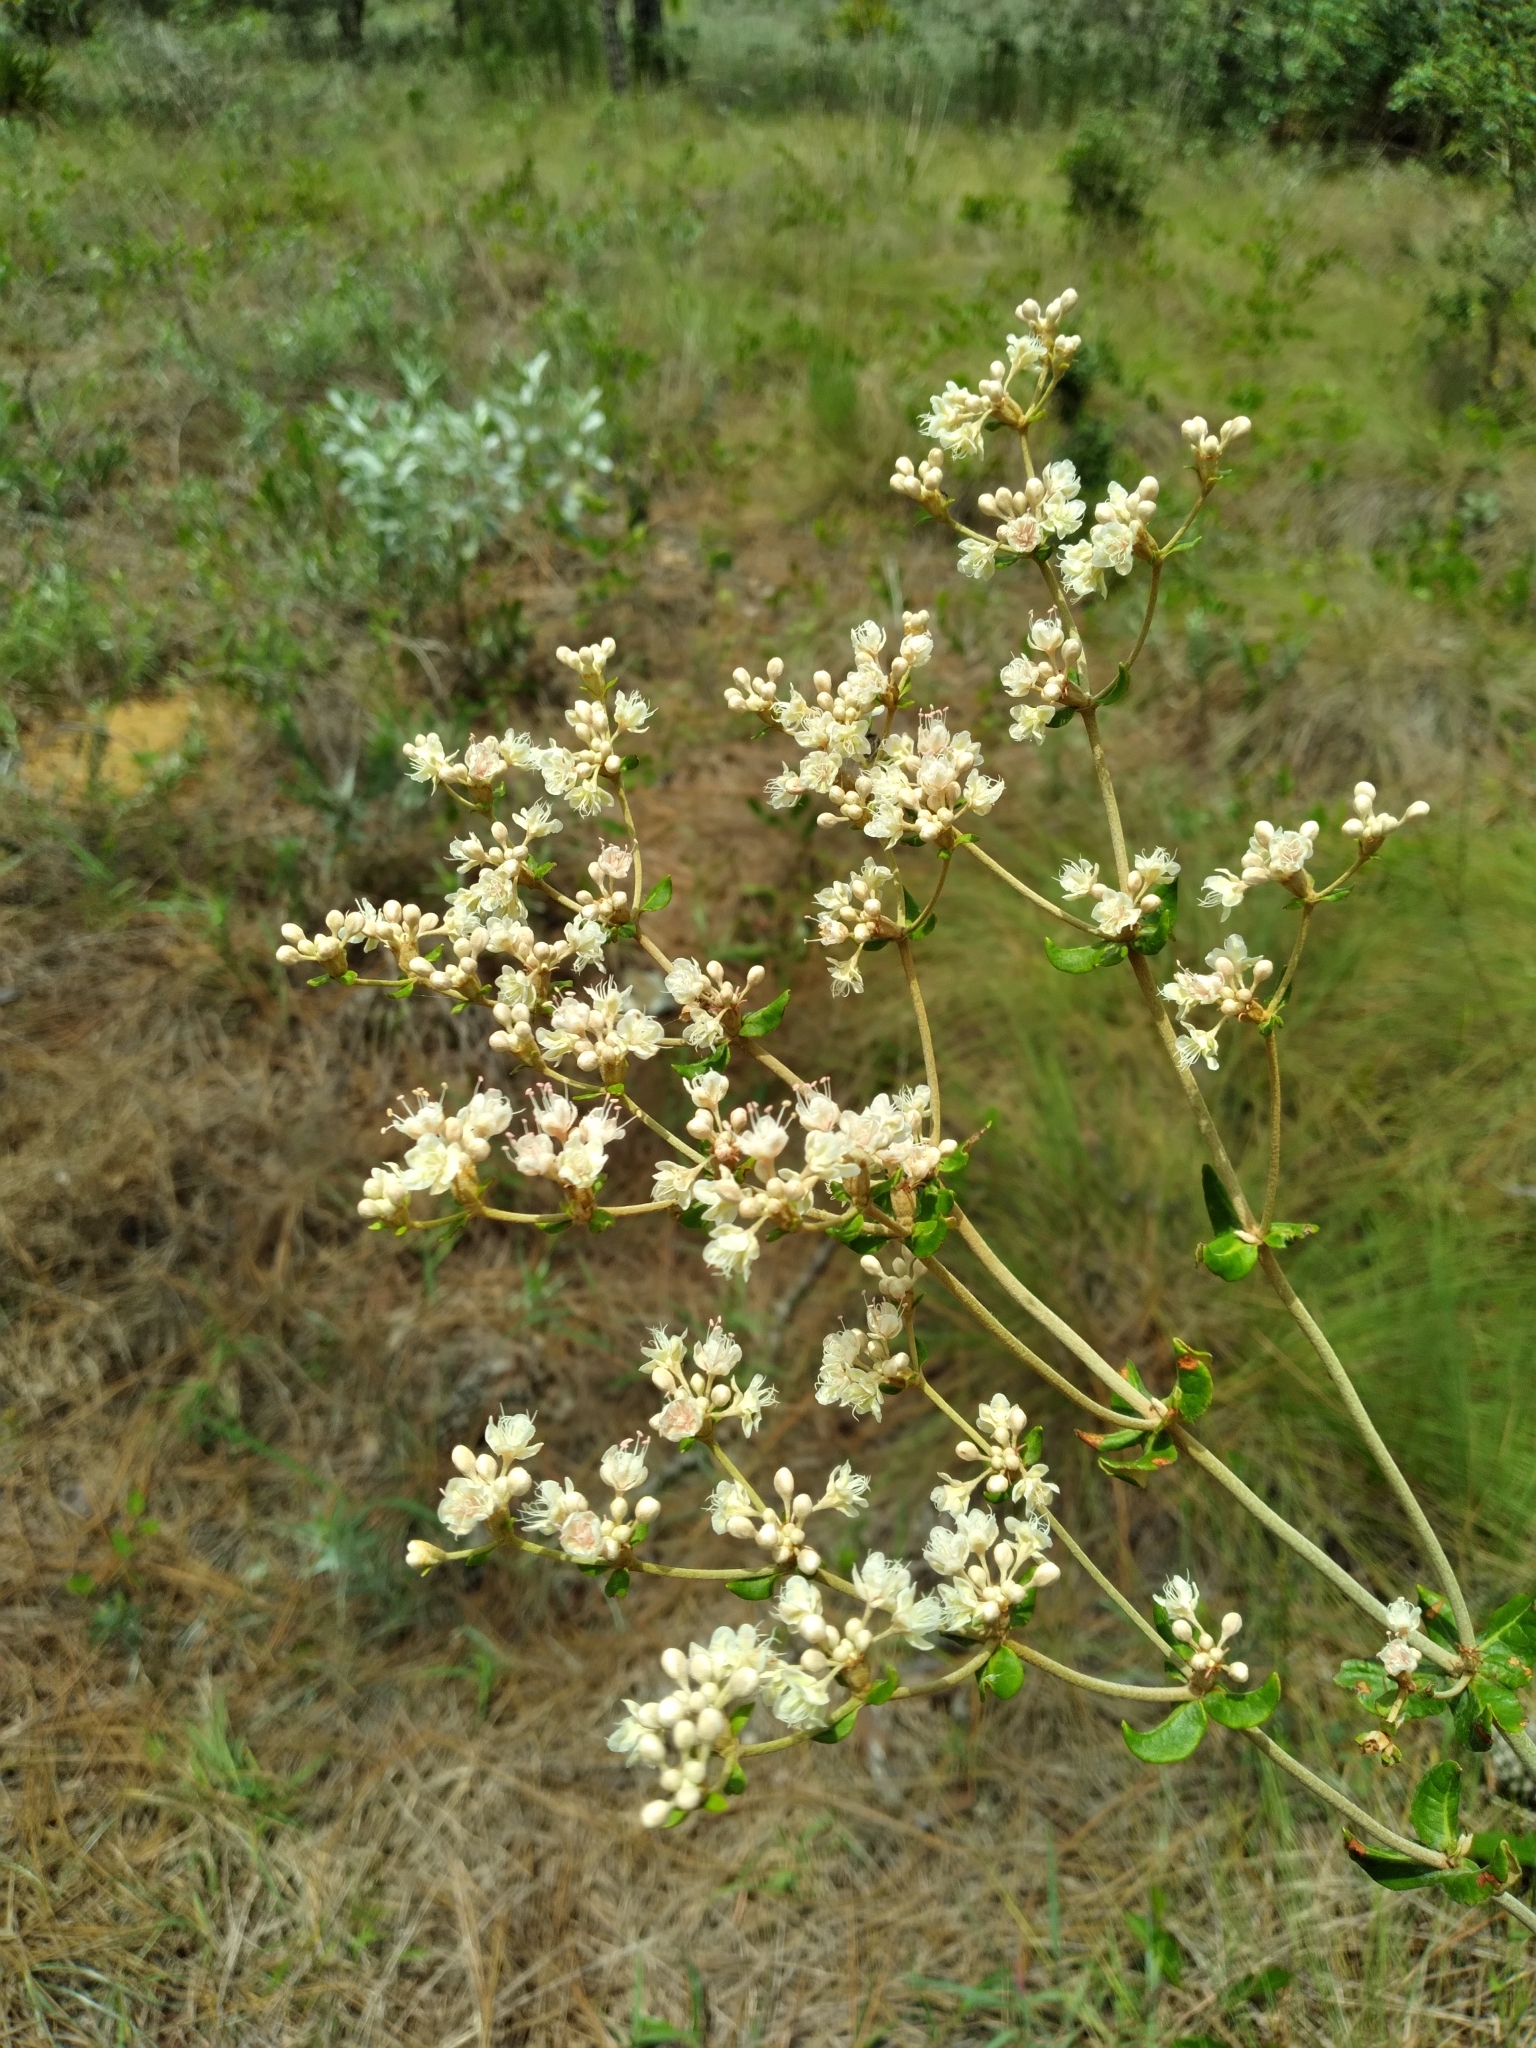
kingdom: Plantae
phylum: Tracheophyta
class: Magnoliopsida
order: Caryophyllales
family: Polygonaceae
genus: Eriogonum
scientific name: Eriogonum tomentosum
